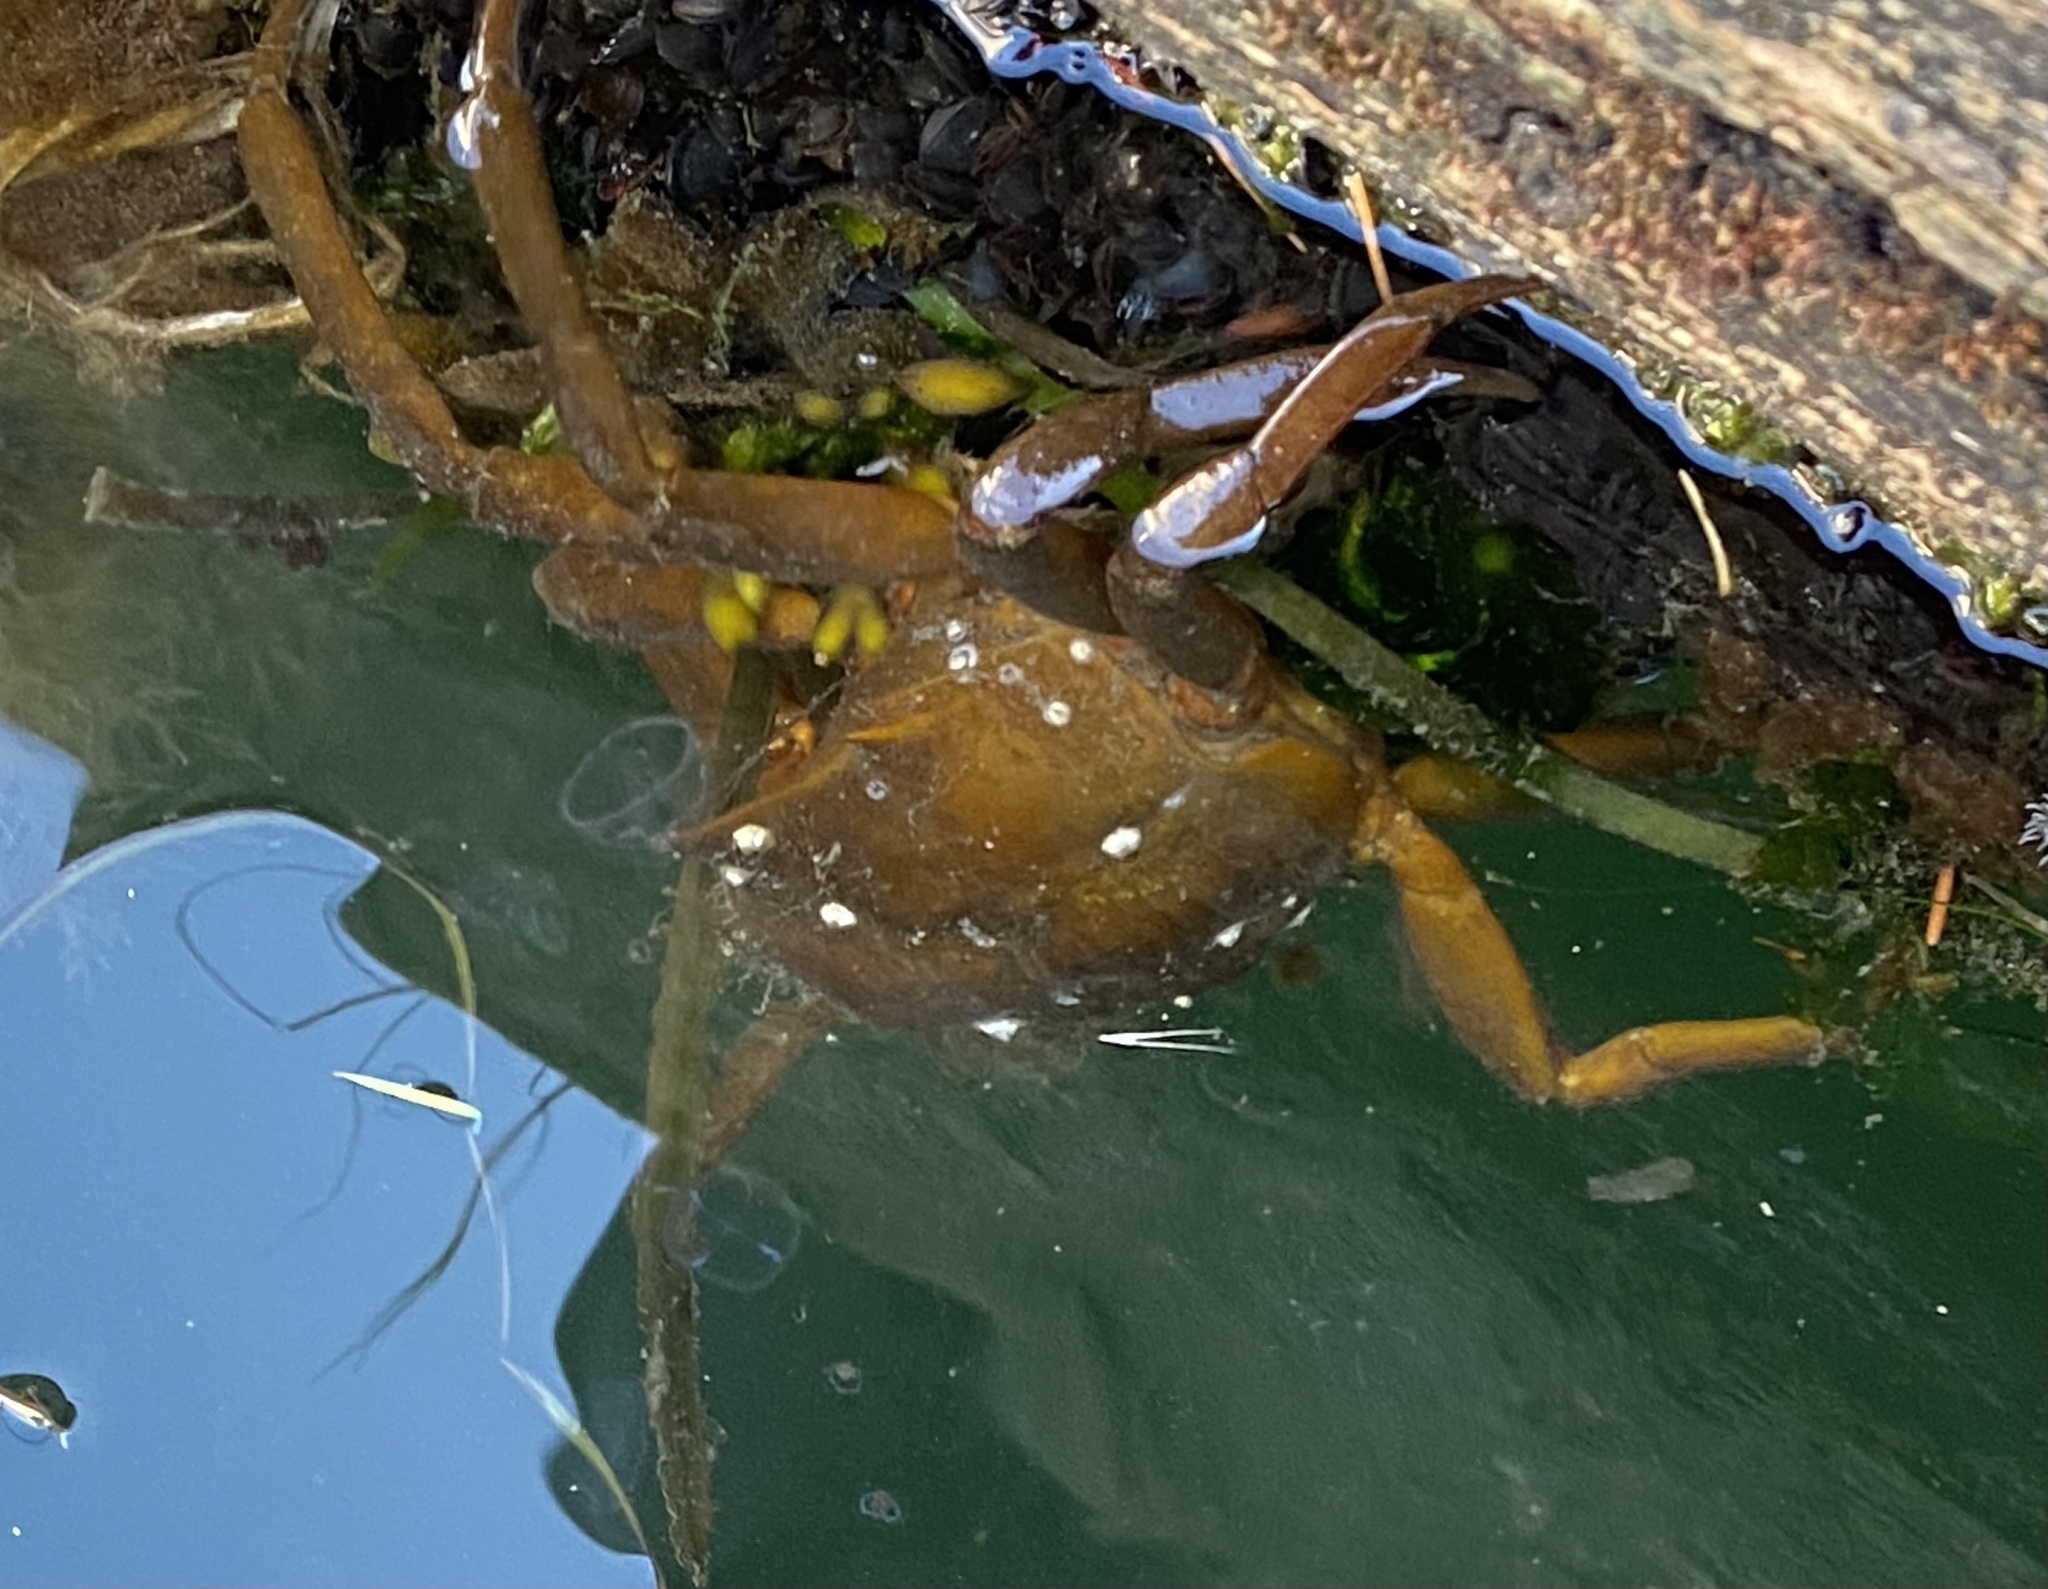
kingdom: Animalia
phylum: Arthropoda
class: Malacostraca
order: Decapoda
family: Epialtidae
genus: Pugettia
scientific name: Pugettia producta
